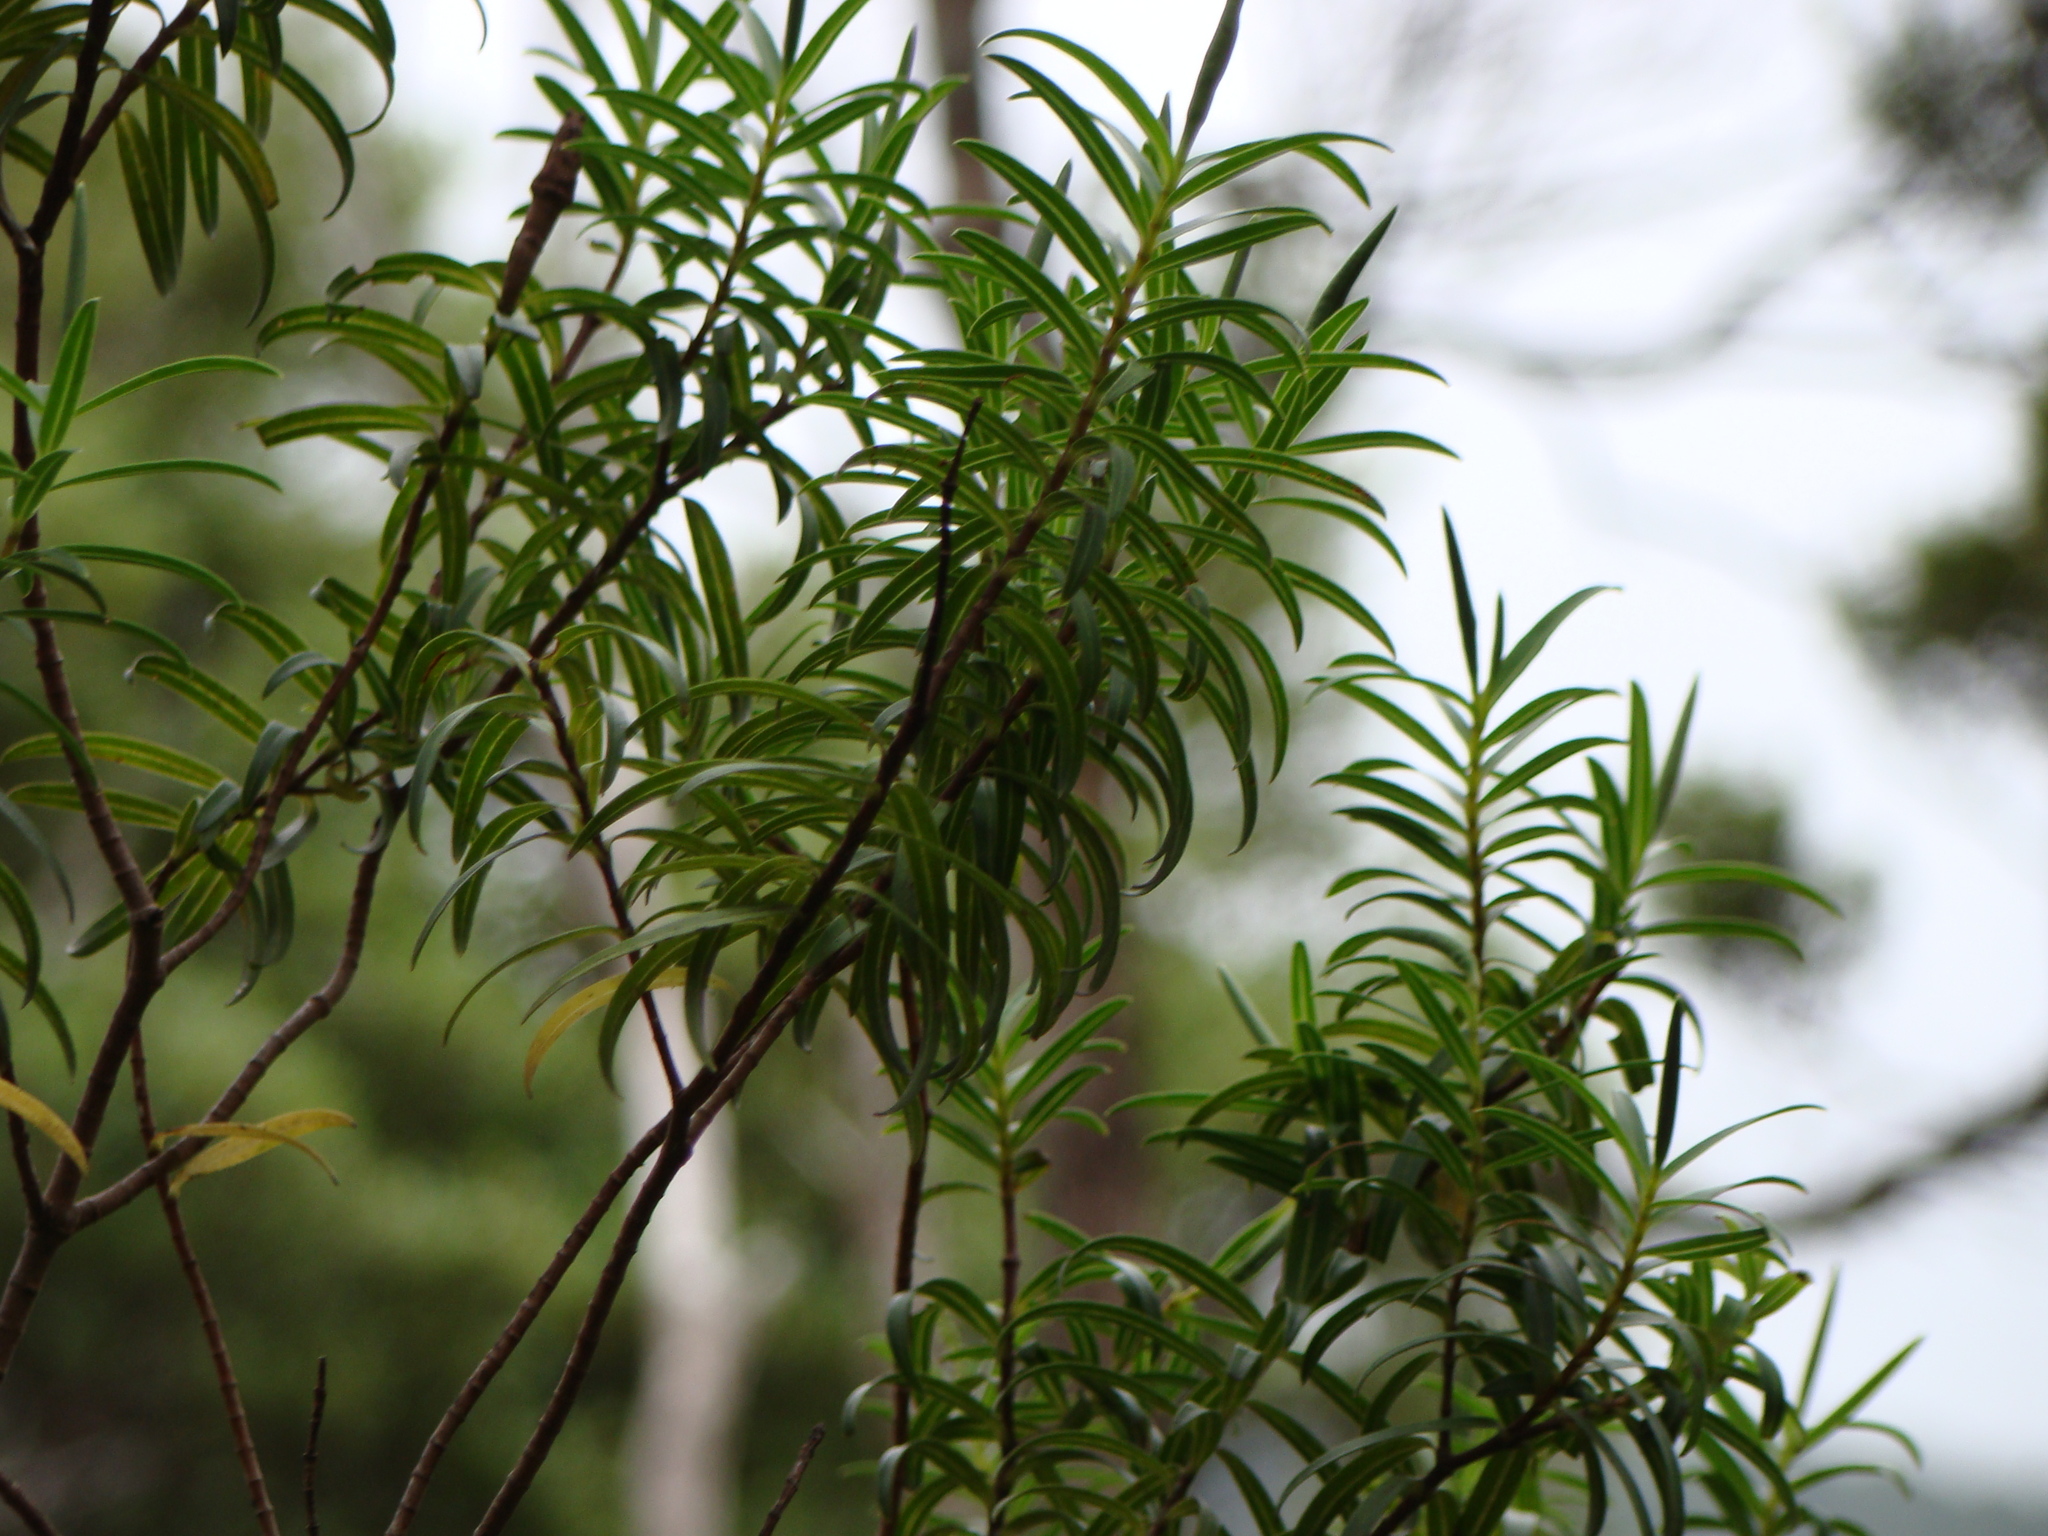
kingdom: Plantae
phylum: Tracheophyta
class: Magnoliopsida
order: Lamiales
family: Plantaginaceae
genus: Veronica
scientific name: Veronica parviflora
